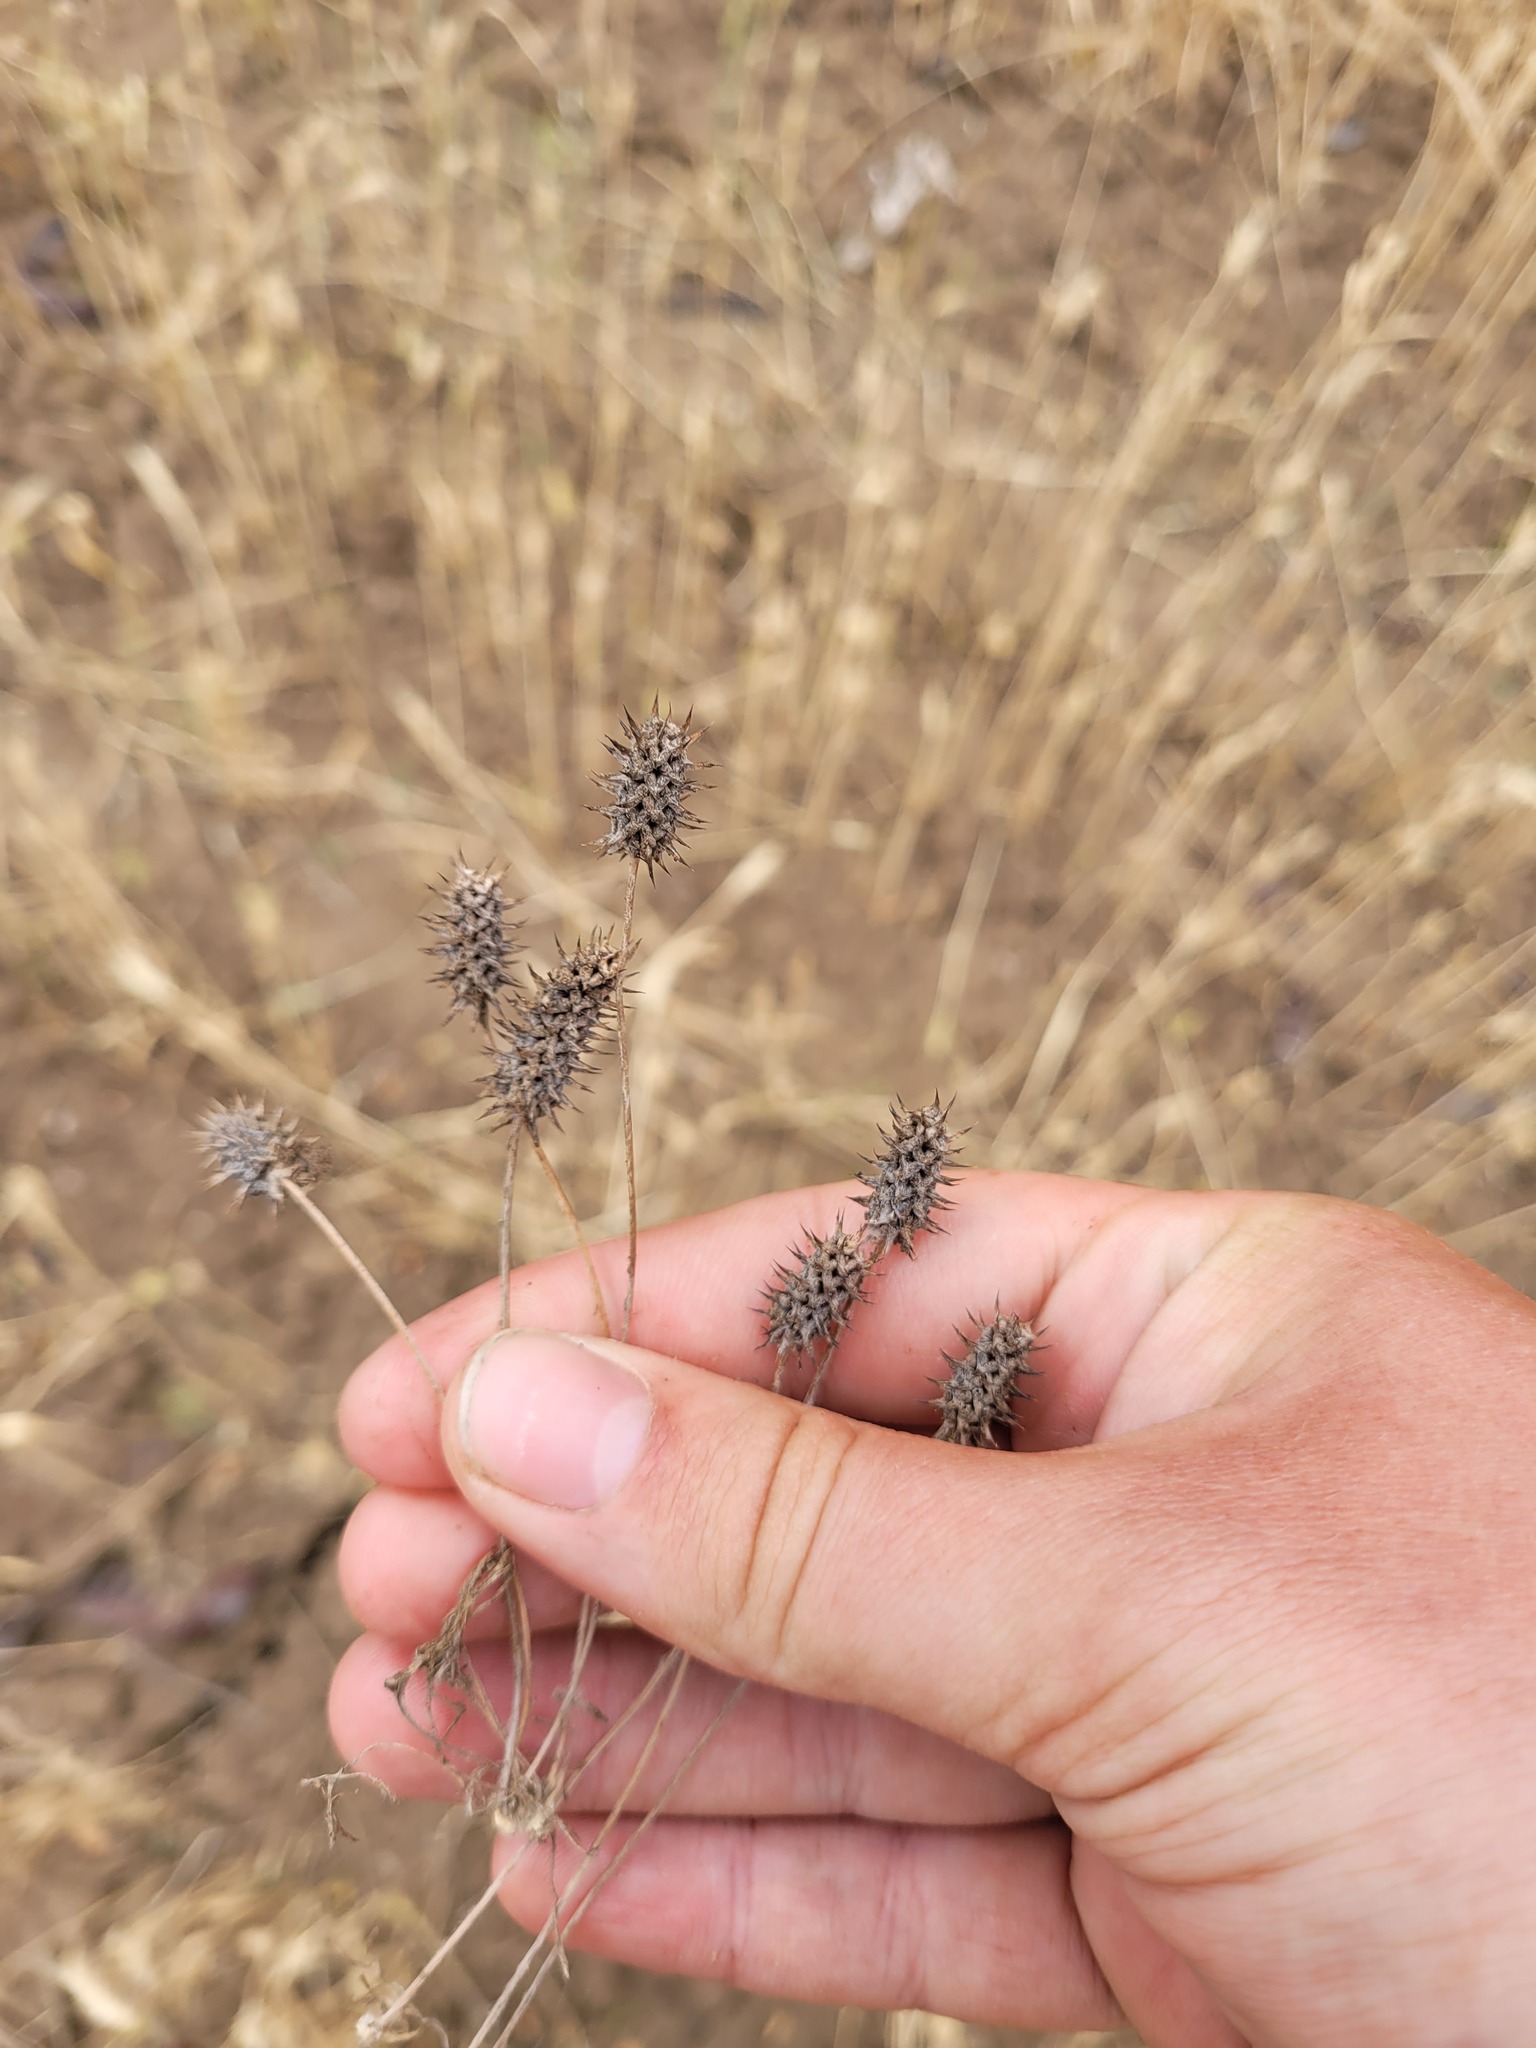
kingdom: Plantae
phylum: Tracheophyta
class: Magnoliopsida
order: Ranunculales
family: Ranunculaceae
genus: Ceratocephala
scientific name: Ceratocephala orthoceras
